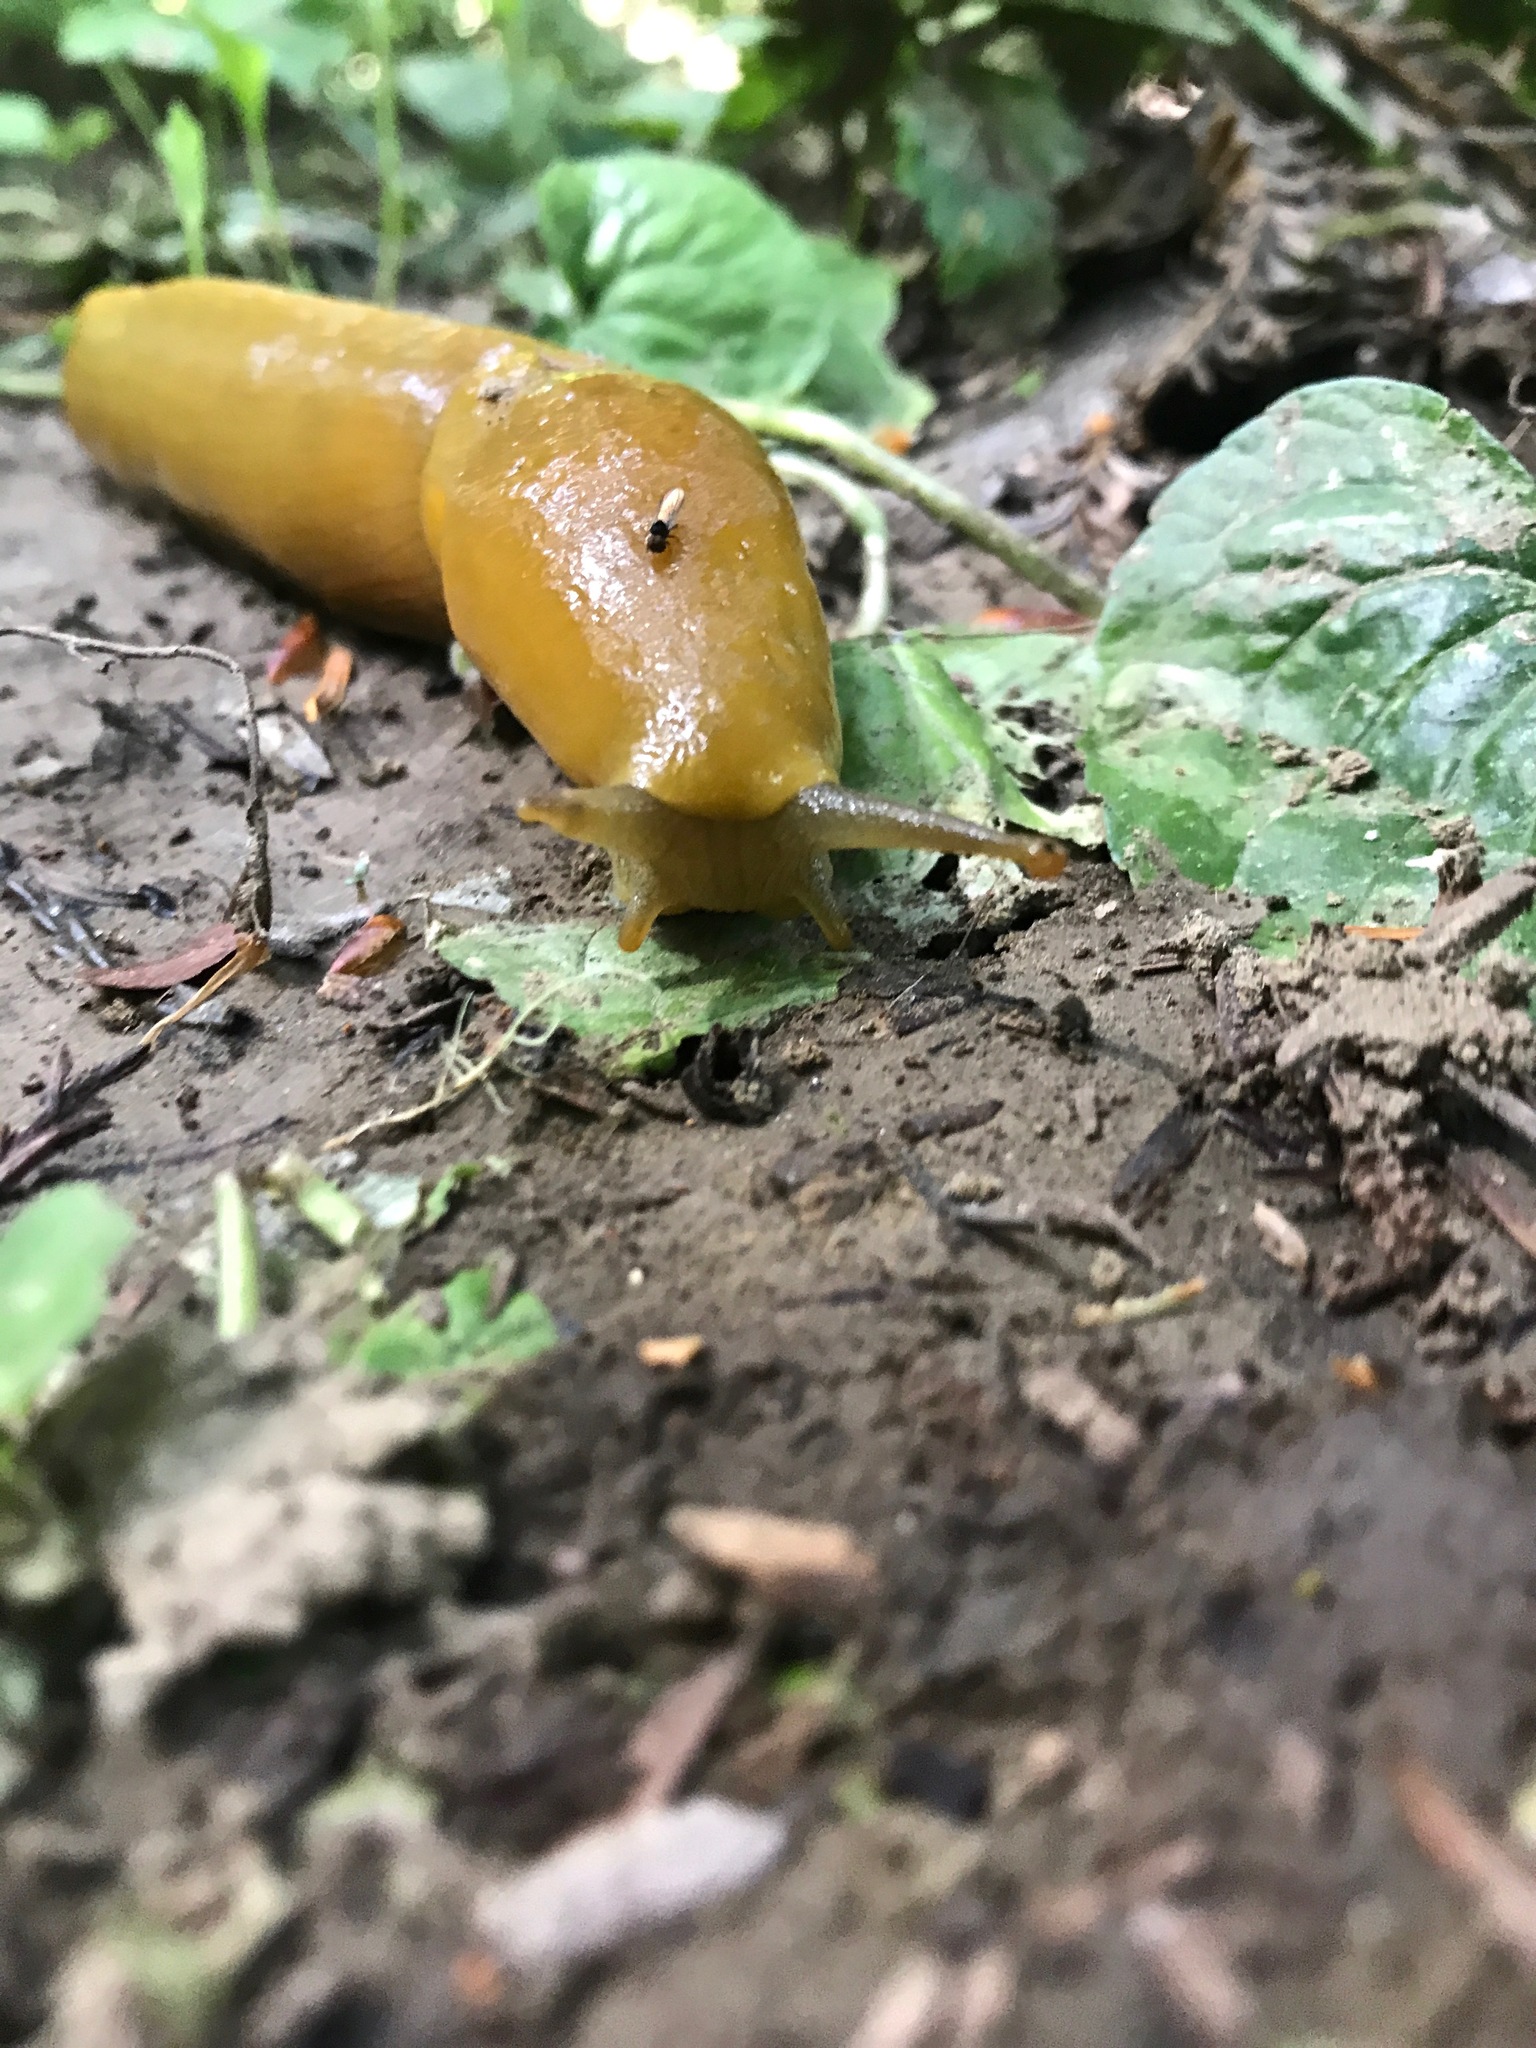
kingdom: Animalia
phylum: Mollusca
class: Gastropoda
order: Stylommatophora
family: Ariolimacidae
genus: Ariolimax
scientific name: Ariolimax buttoni
